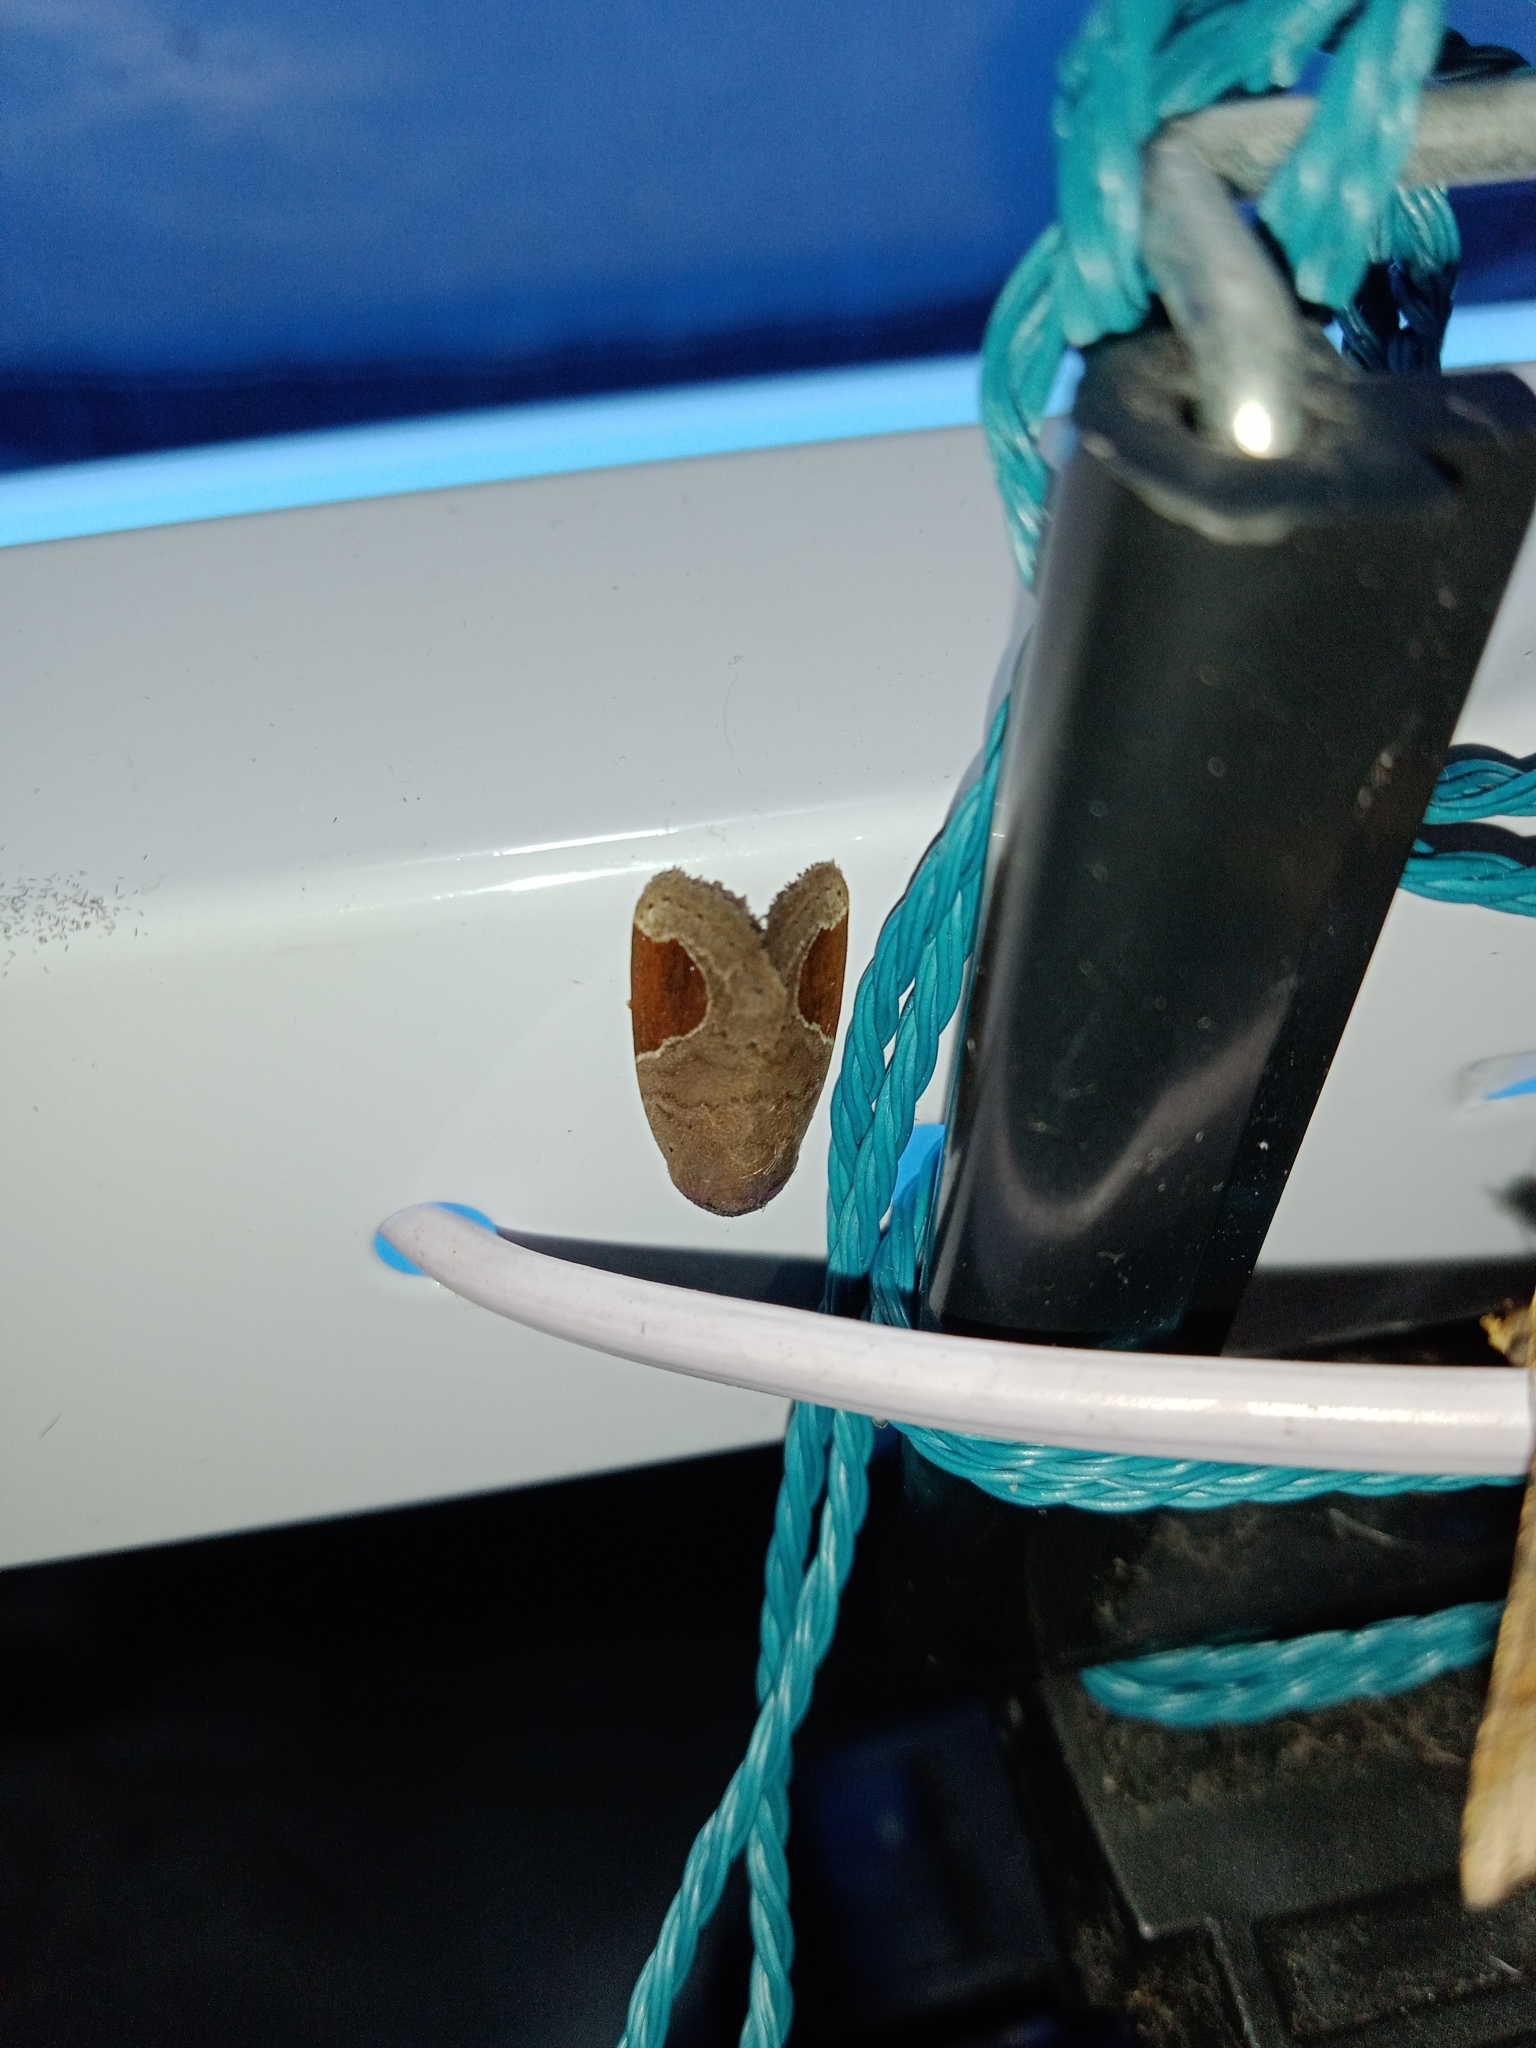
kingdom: Animalia
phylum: Arthropoda
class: Insecta
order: Lepidoptera
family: Noctuidae
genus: Dyrzela
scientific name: Dyrzela plagiata
